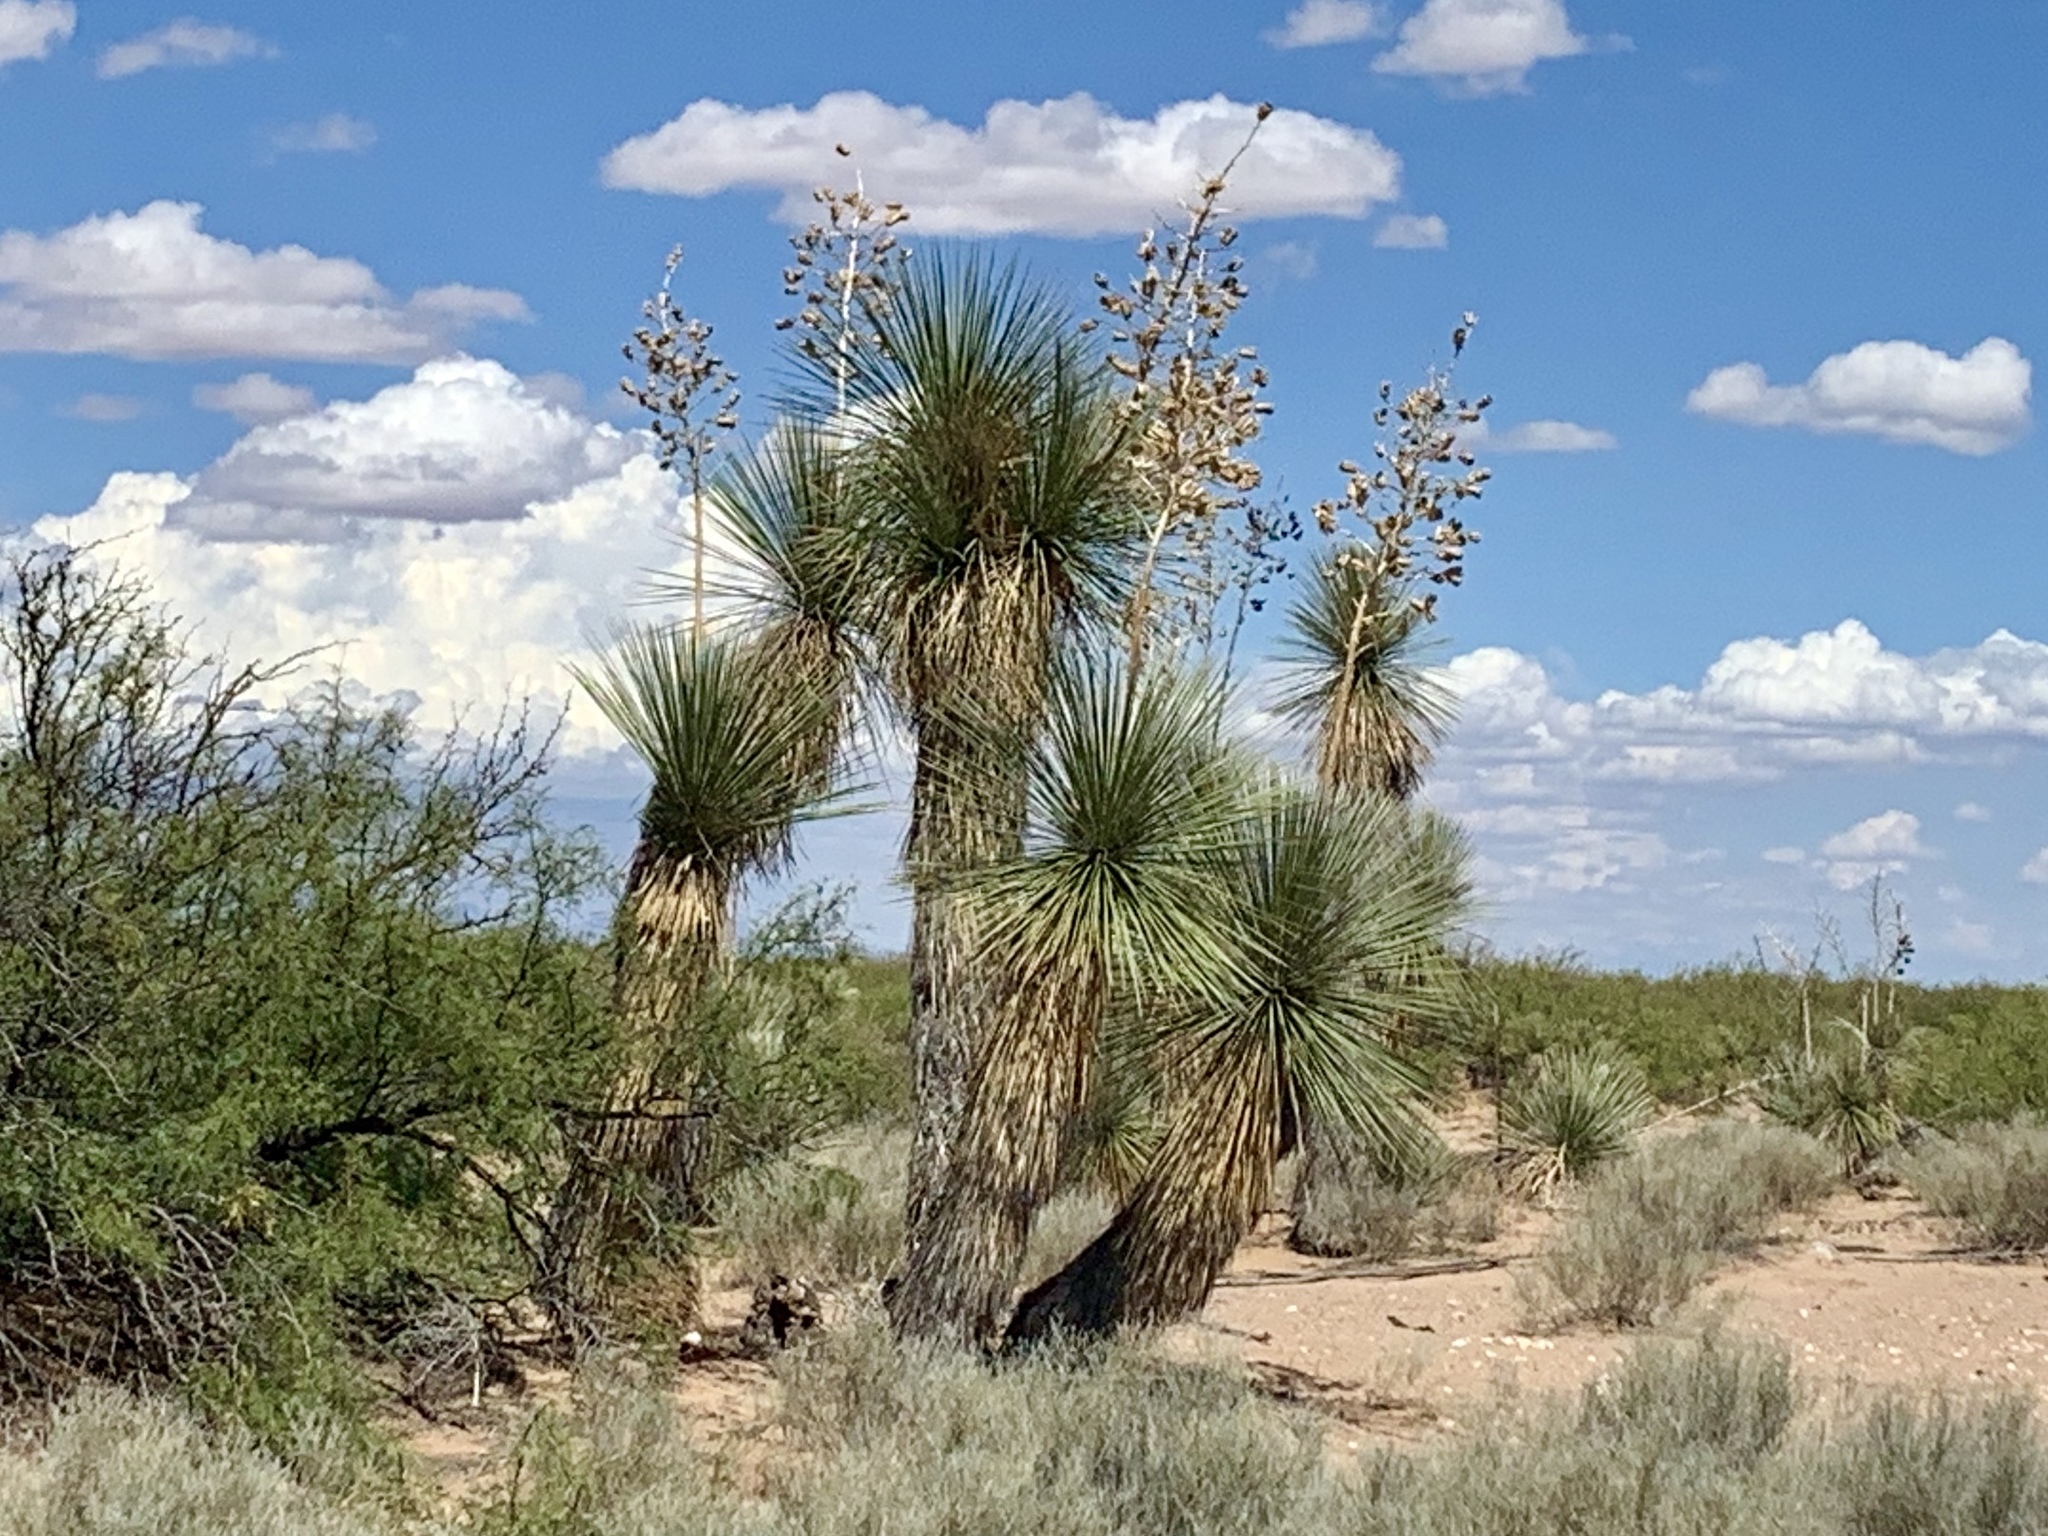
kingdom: Plantae
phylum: Tracheophyta
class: Liliopsida
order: Asparagales
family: Asparagaceae
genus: Yucca
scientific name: Yucca elata
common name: Palmella
